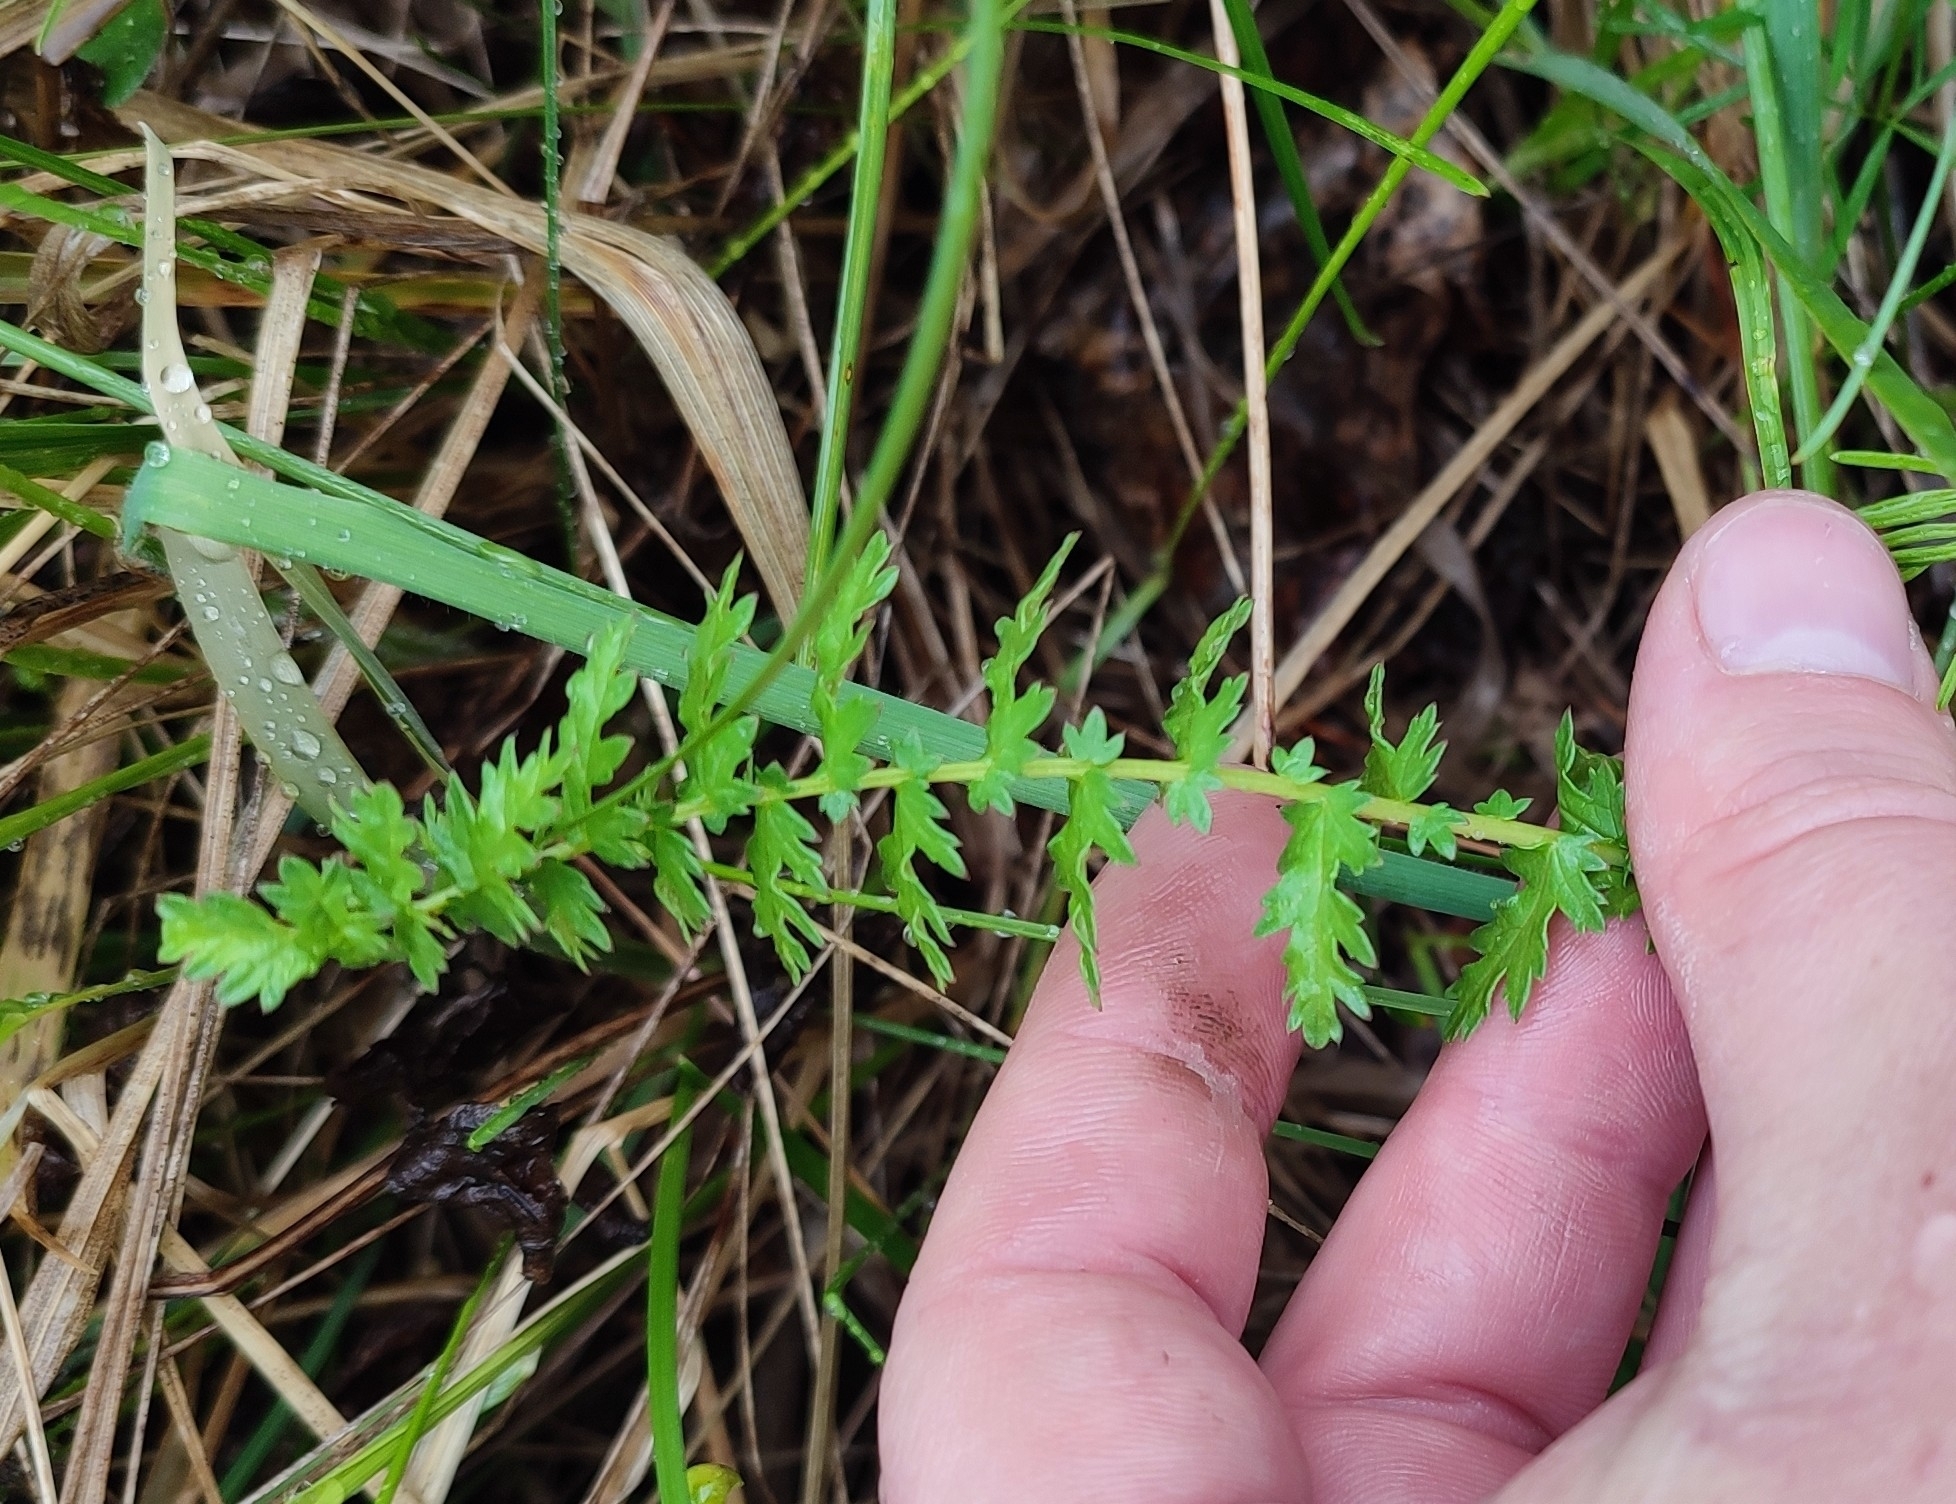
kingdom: Plantae
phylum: Tracheophyta
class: Magnoliopsida
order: Rosales
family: Rosaceae
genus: Filipendula
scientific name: Filipendula vulgaris
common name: Dropwort
